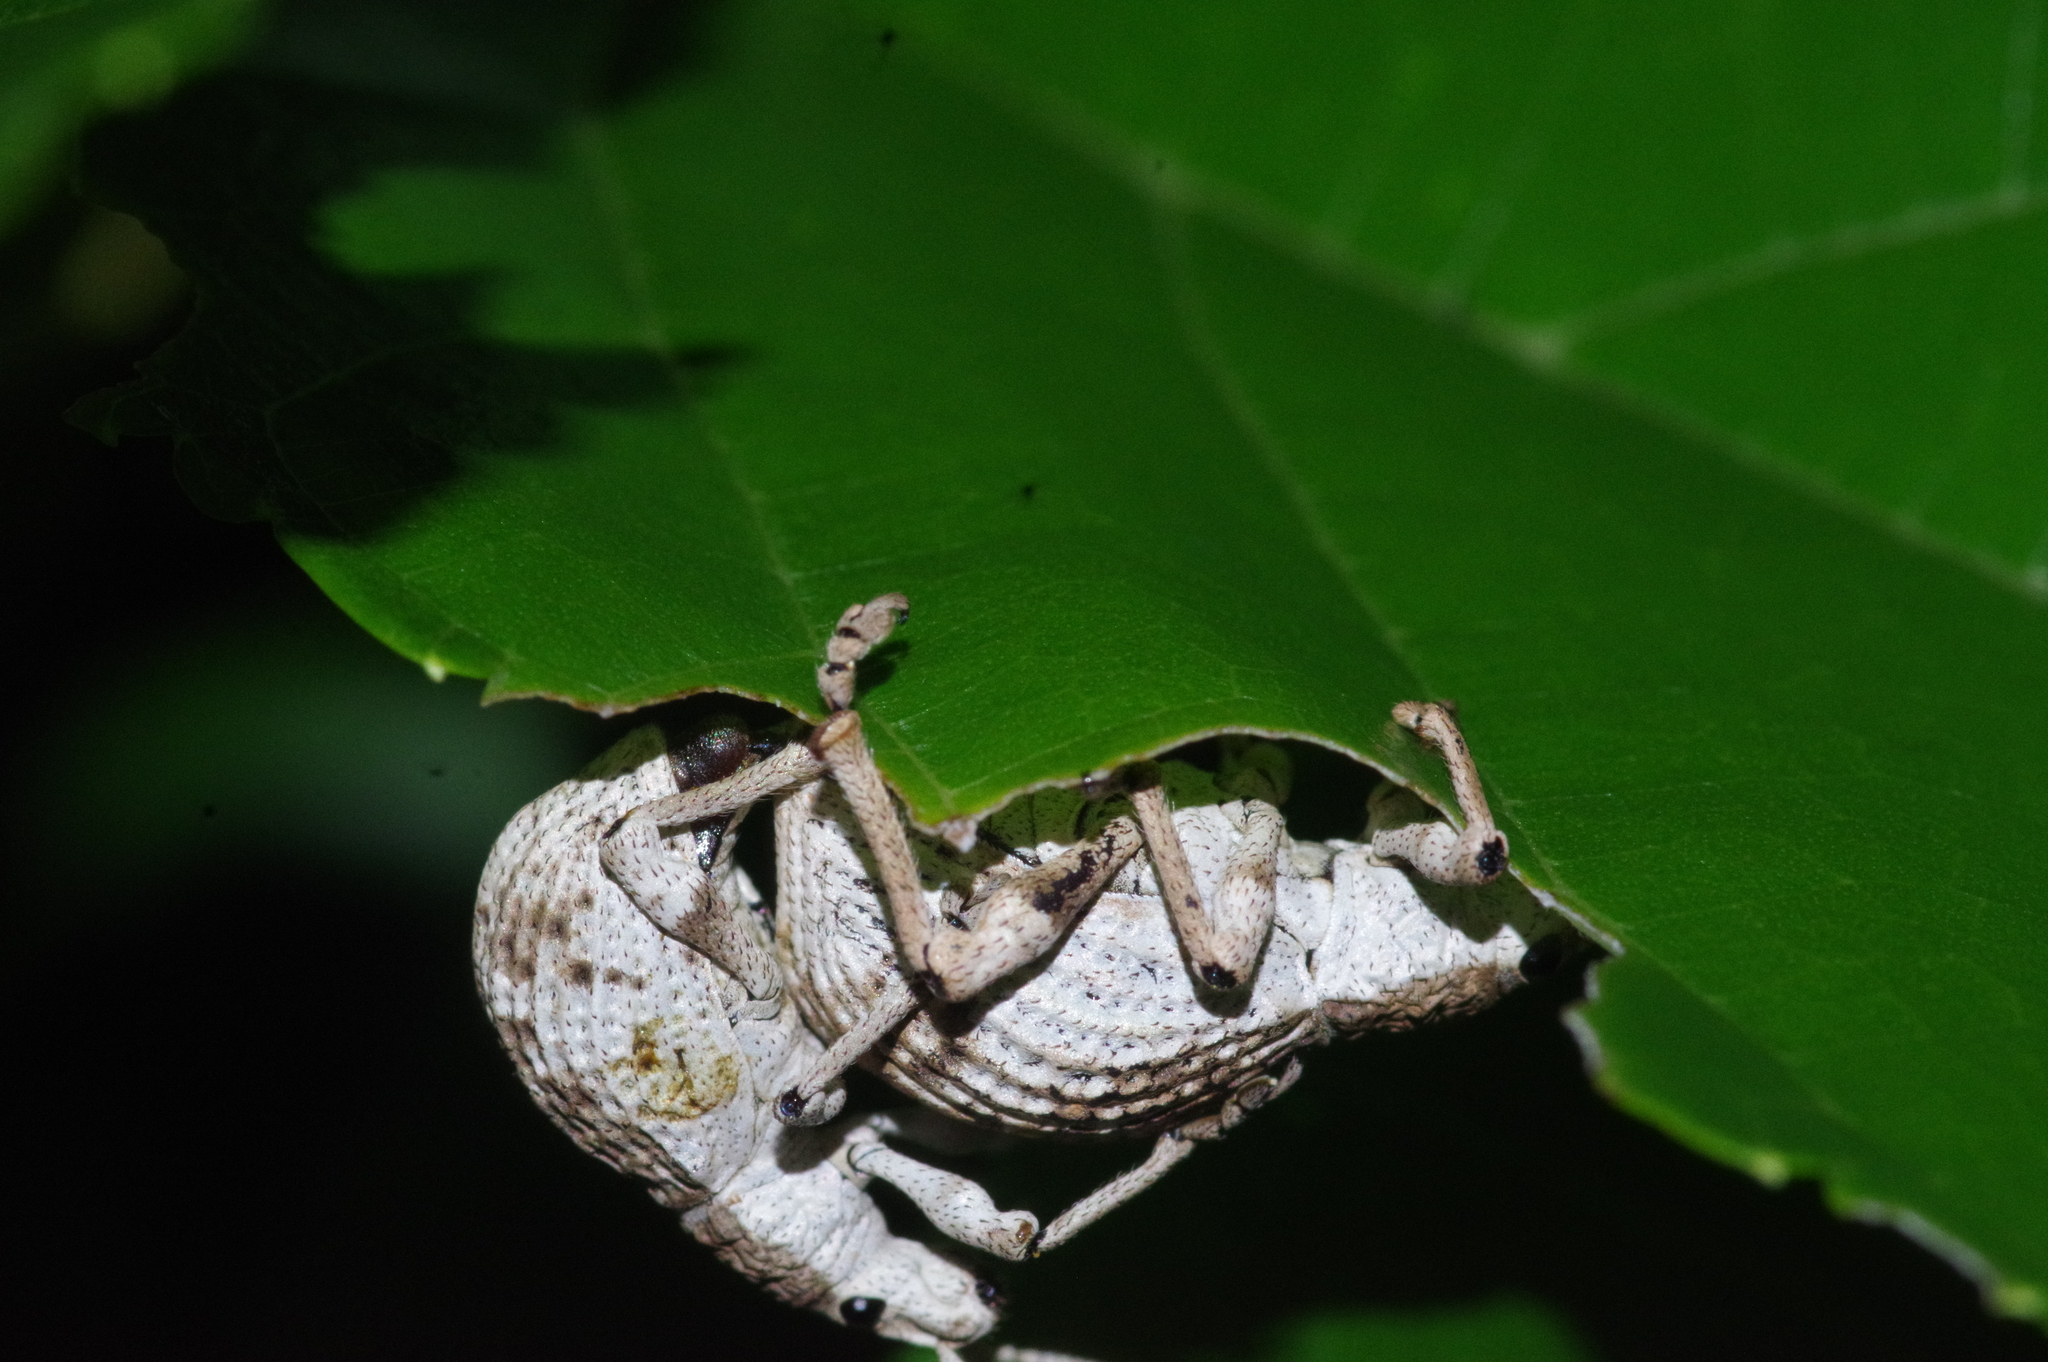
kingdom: Animalia
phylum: Arthropoda
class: Insecta
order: Coleoptera
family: Curculionidae
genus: Episomus
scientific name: Episomus mori
